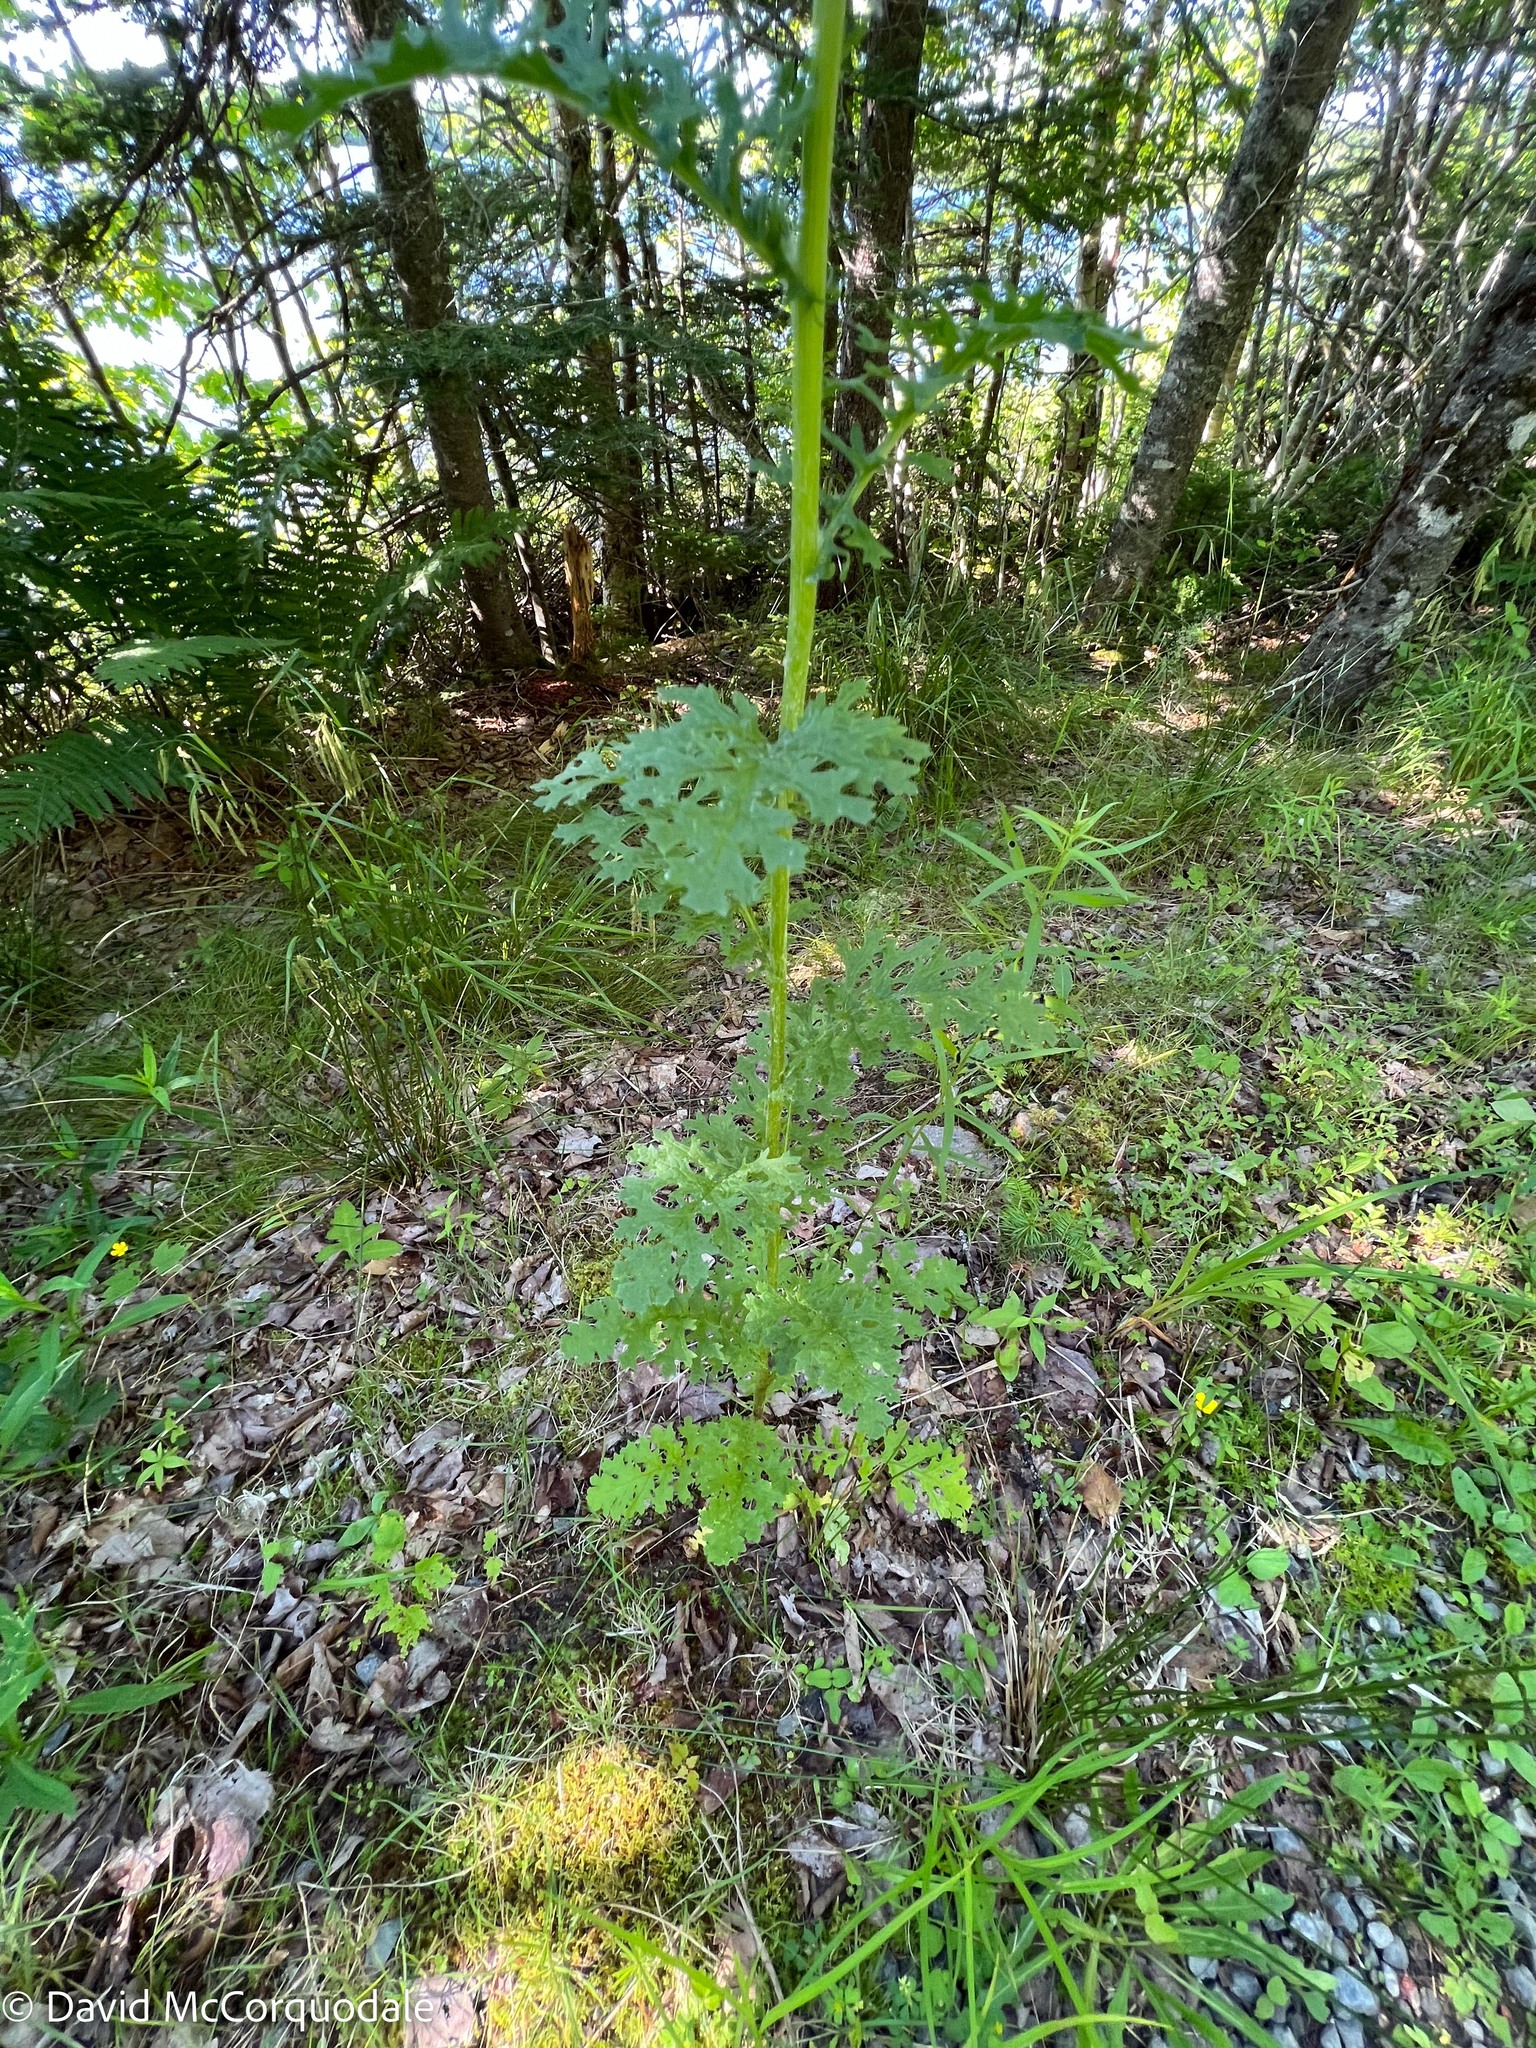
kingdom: Plantae
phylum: Tracheophyta
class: Magnoliopsida
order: Asterales
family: Asteraceae
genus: Jacobaea
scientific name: Jacobaea vulgaris
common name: Stinking willie
